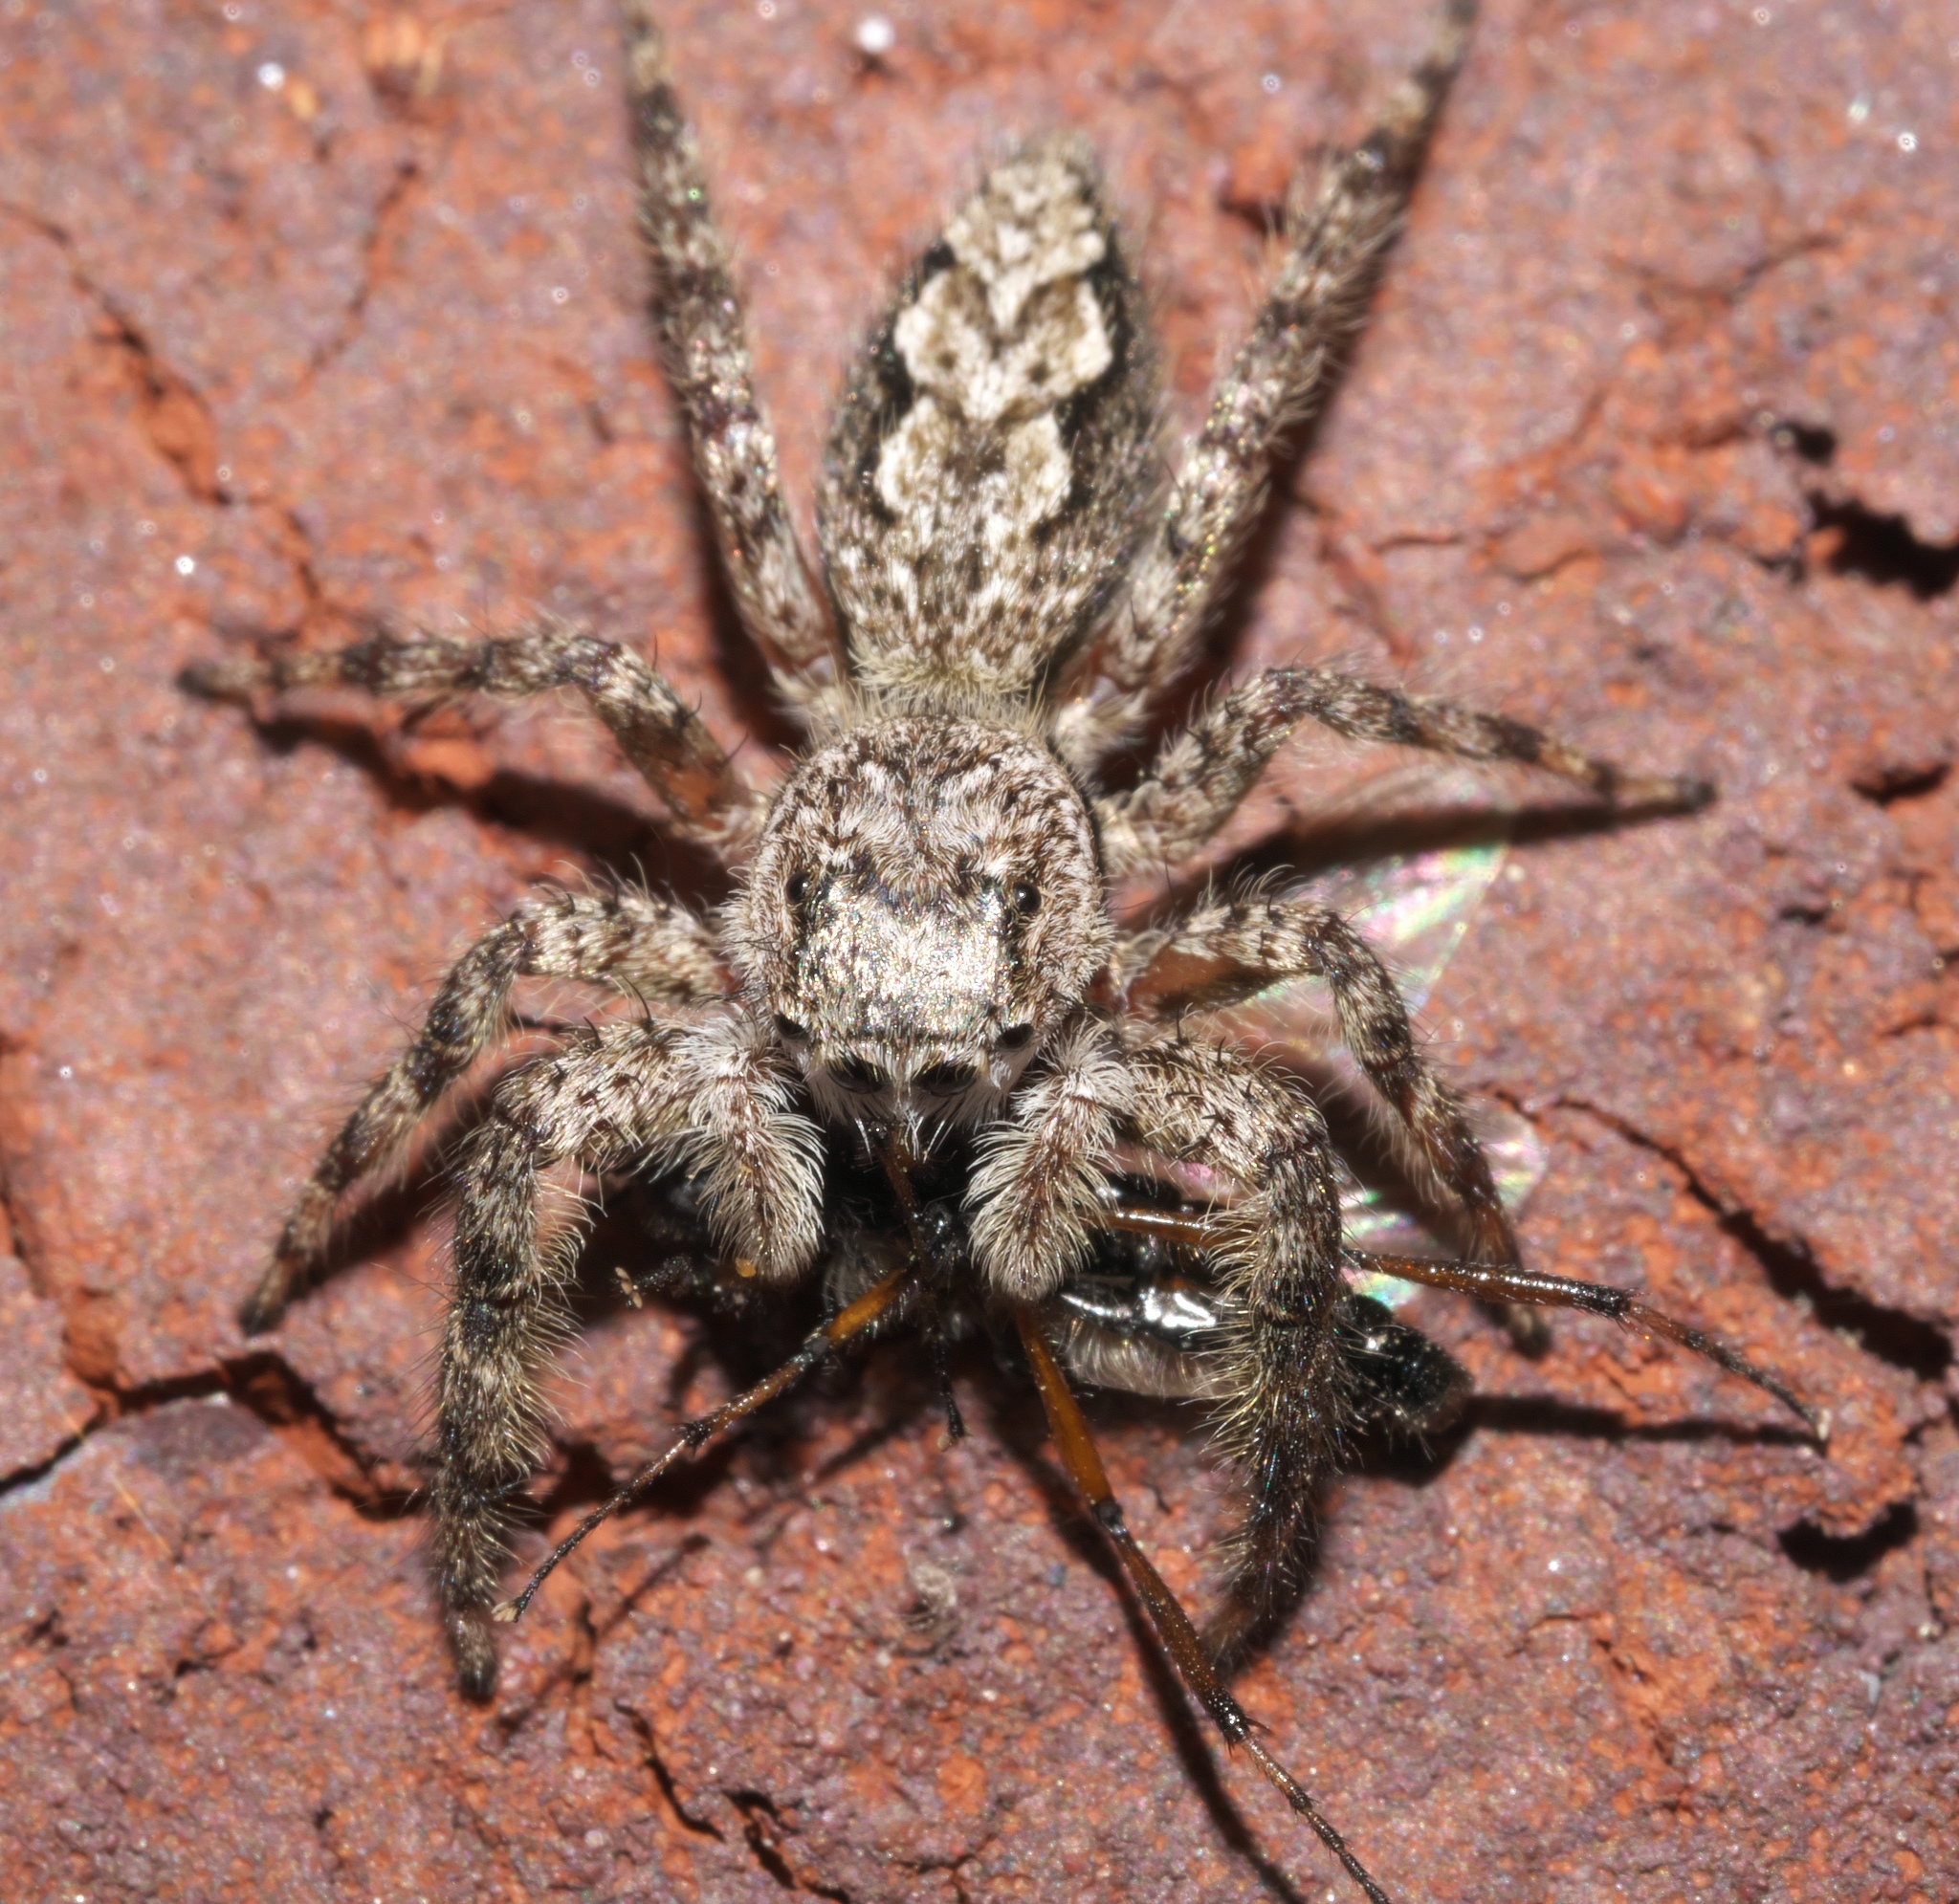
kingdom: Animalia
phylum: Arthropoda
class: Arachnida
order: Araneae
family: Salticidae
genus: Platycryptus
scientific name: Platycryptus undatus
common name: Tan jumping spider
